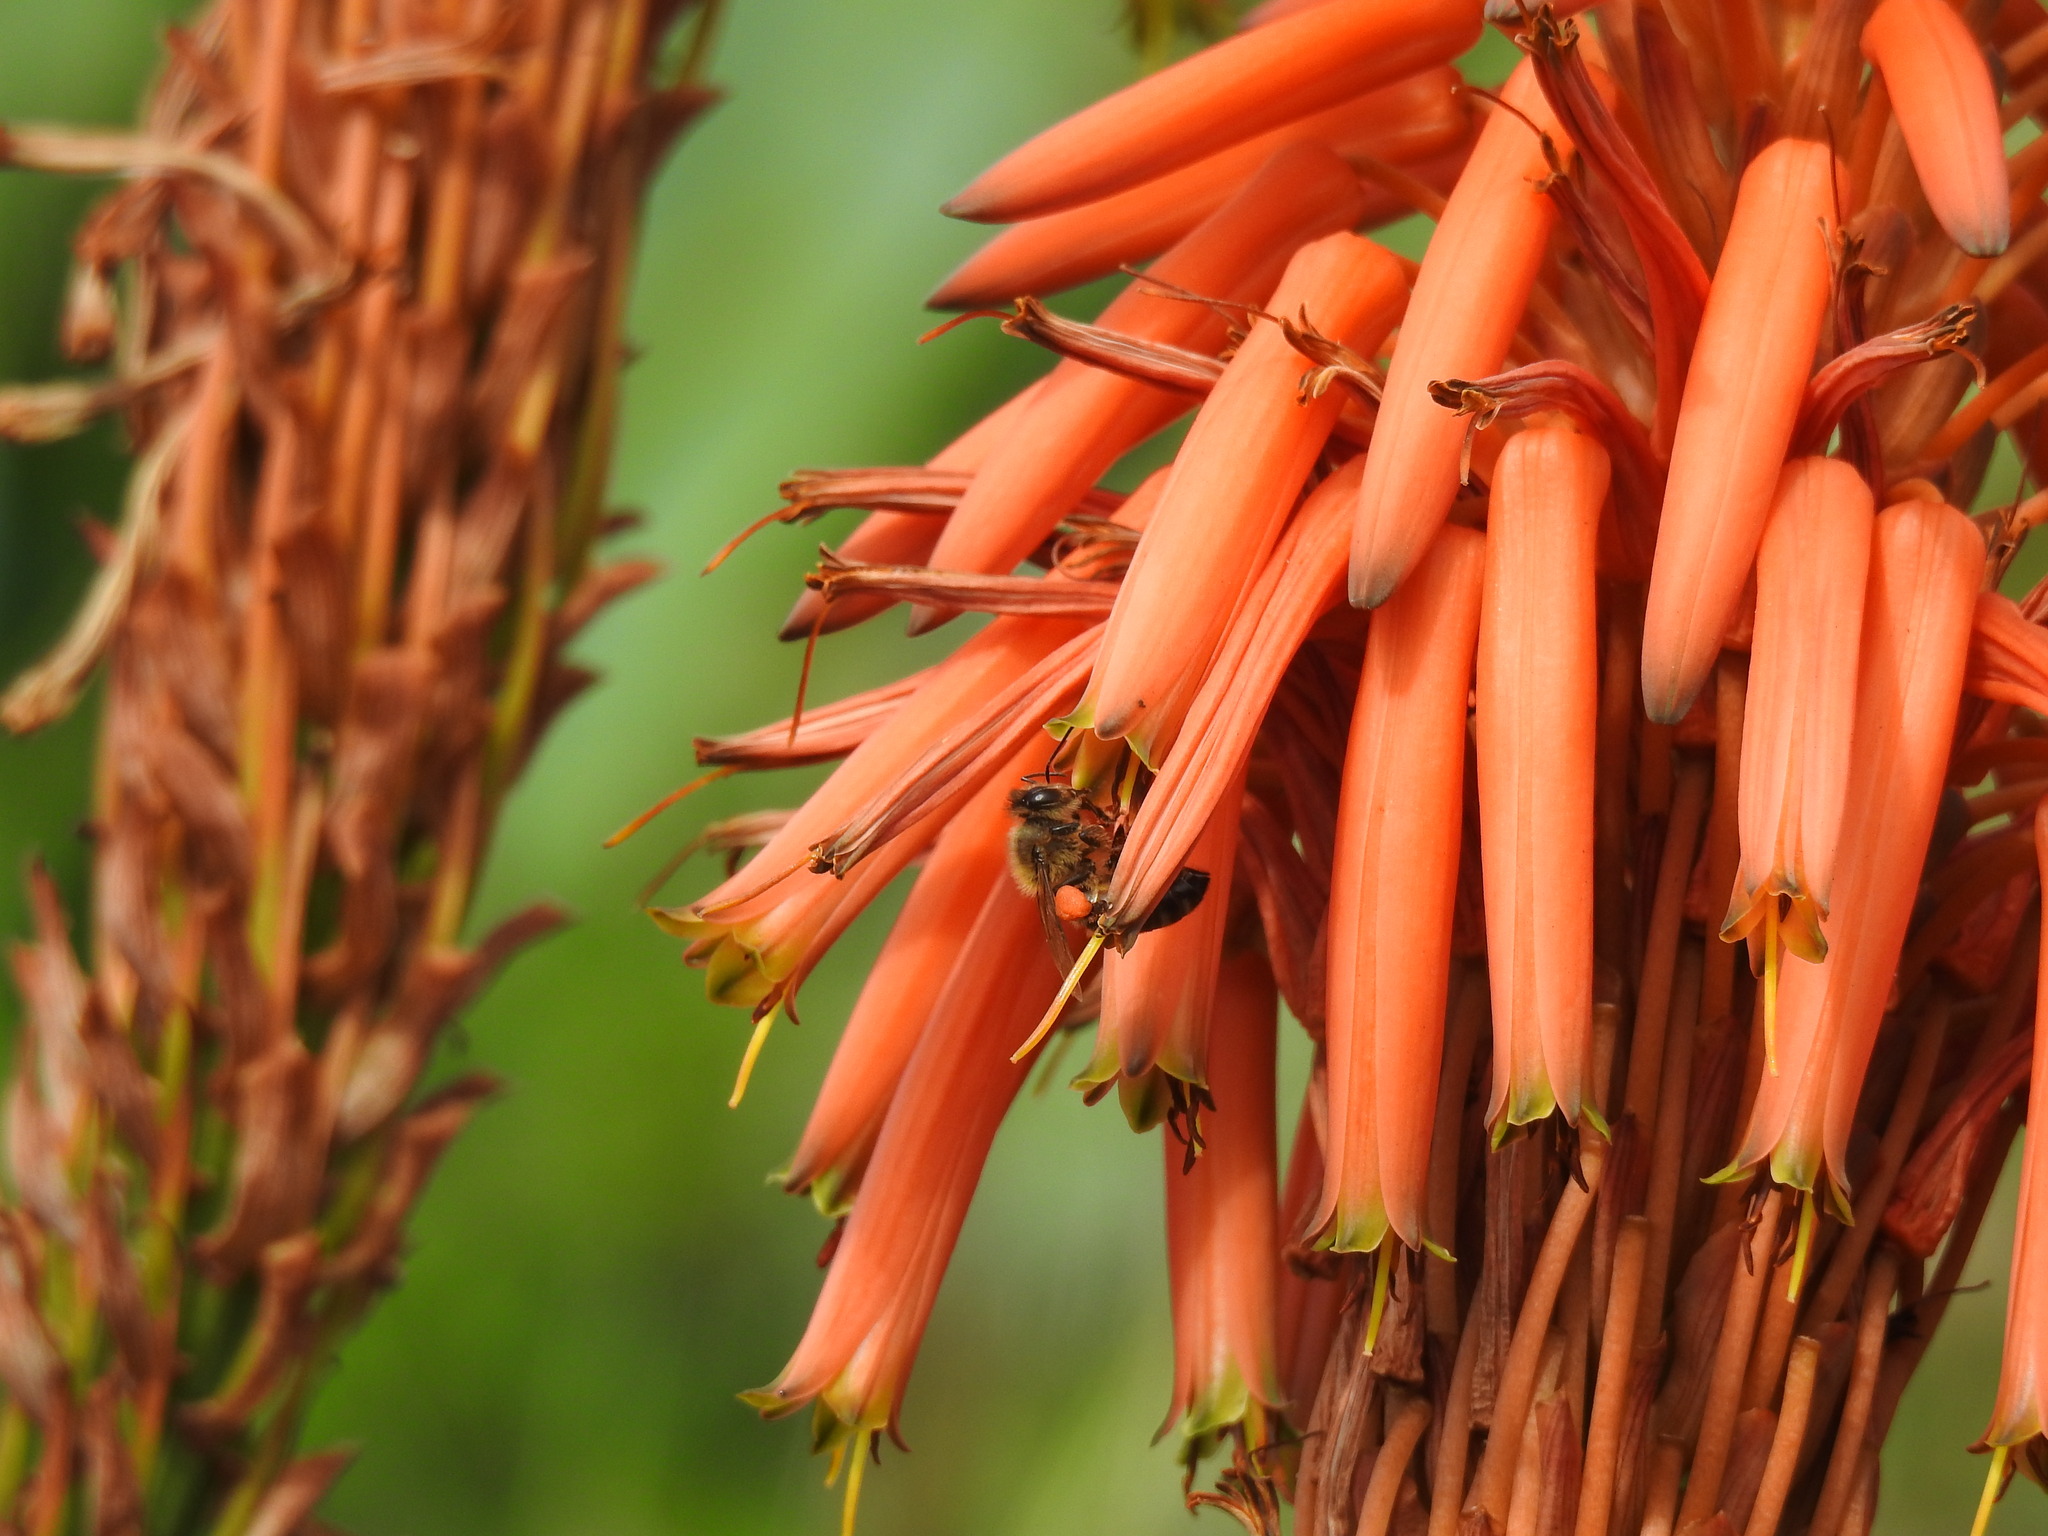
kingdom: Animalia
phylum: Arthropoda
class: Insecta
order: Hymenoptera
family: Apidae
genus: Apis
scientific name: Apis mellifera
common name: Honey bee
